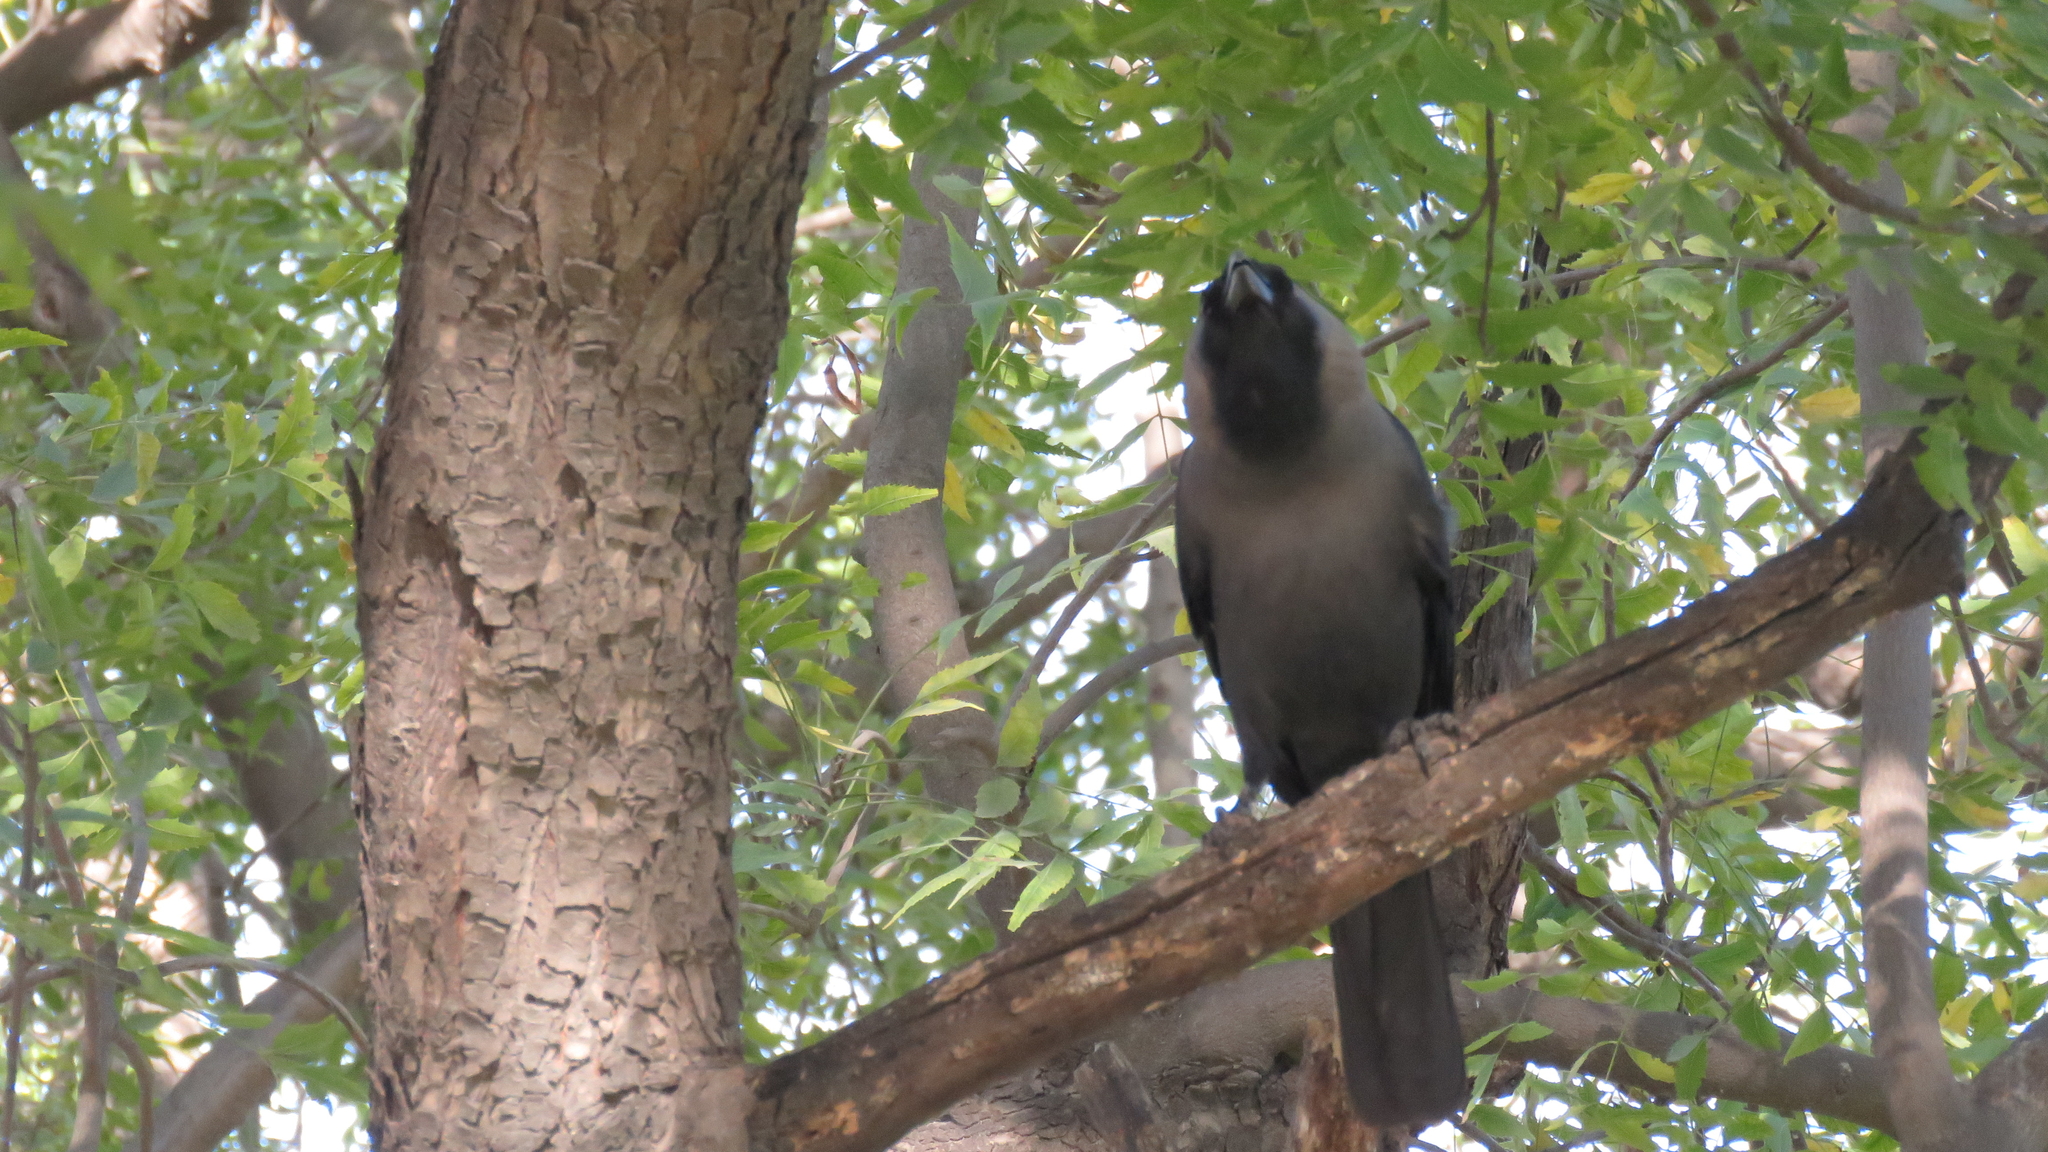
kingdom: Animalia
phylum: Chordata
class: Aves
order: Passeriformes
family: Corvidae
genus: Corvus
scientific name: Corvus splendens
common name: House crow
